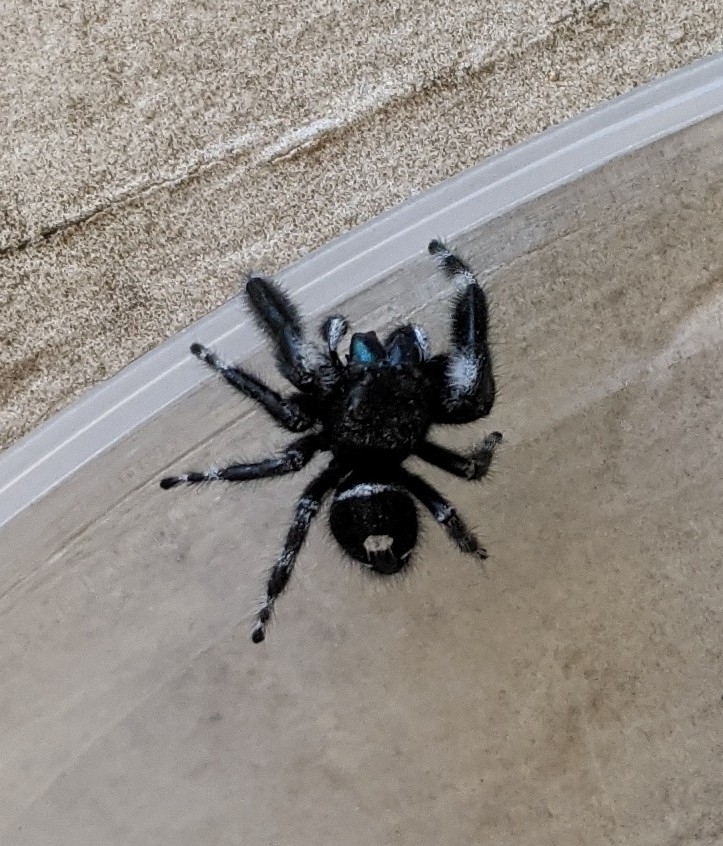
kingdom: Animalia
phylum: Arthropoda
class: Arachnida
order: Araneae
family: Salticidae
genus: Phidippus
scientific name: Phidippus audax
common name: Bold jumper
